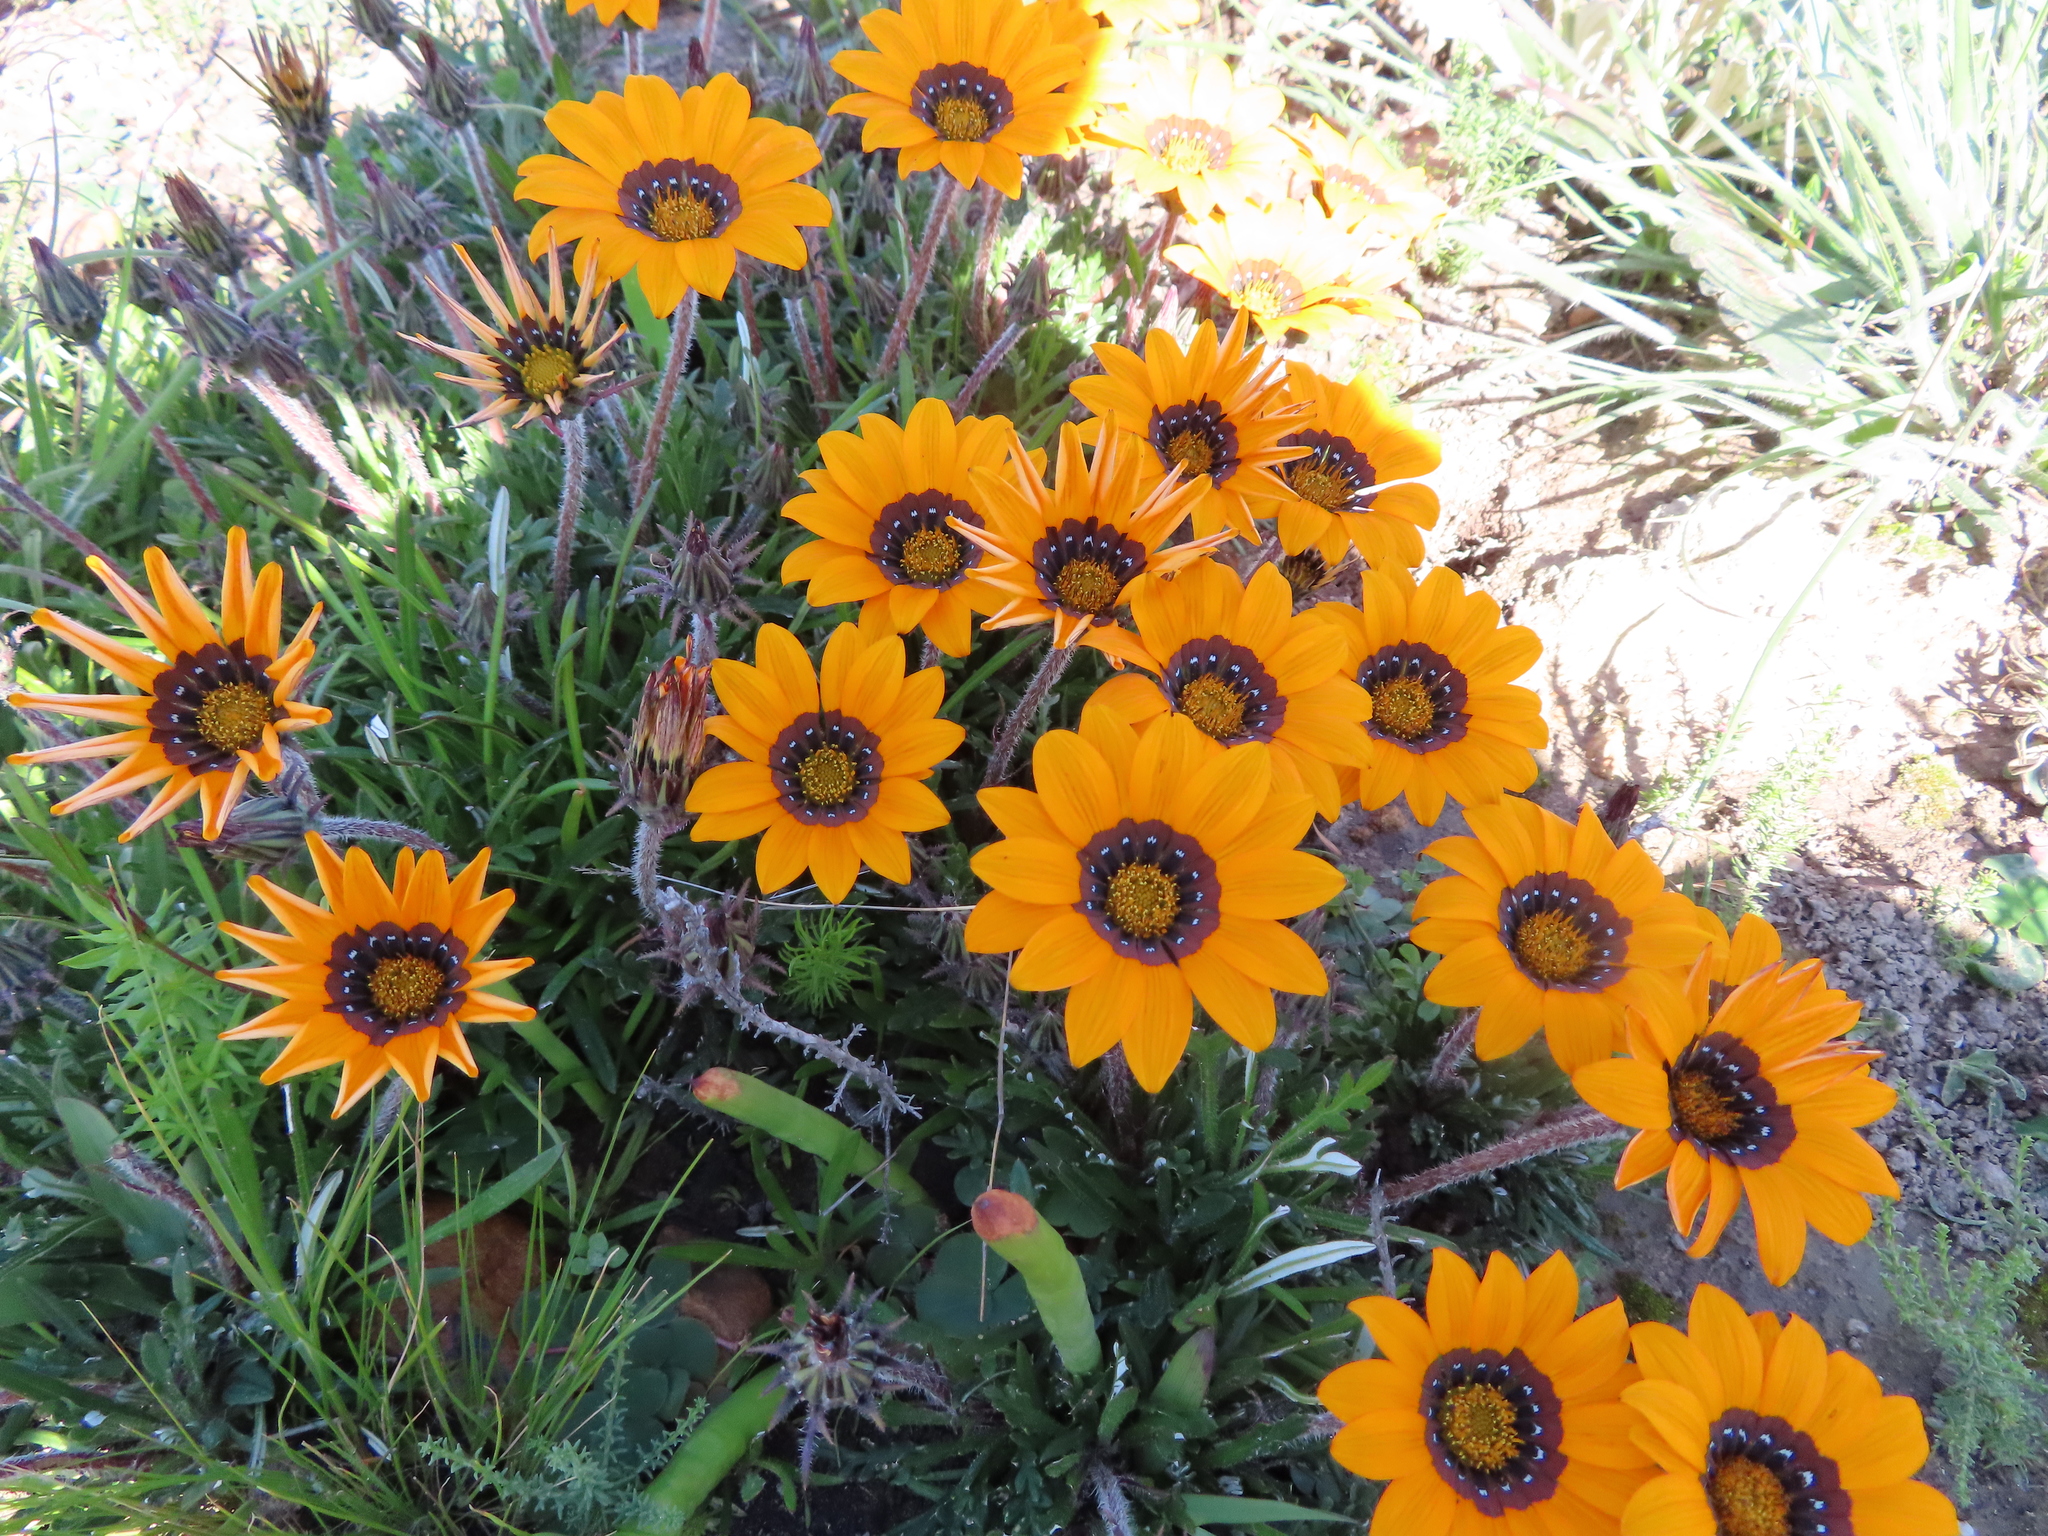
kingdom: Plantae
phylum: Tracheophyta
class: Magnoliopsida
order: Asterales
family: Asteraceae
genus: Gazania
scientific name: Gazania ciliaris
